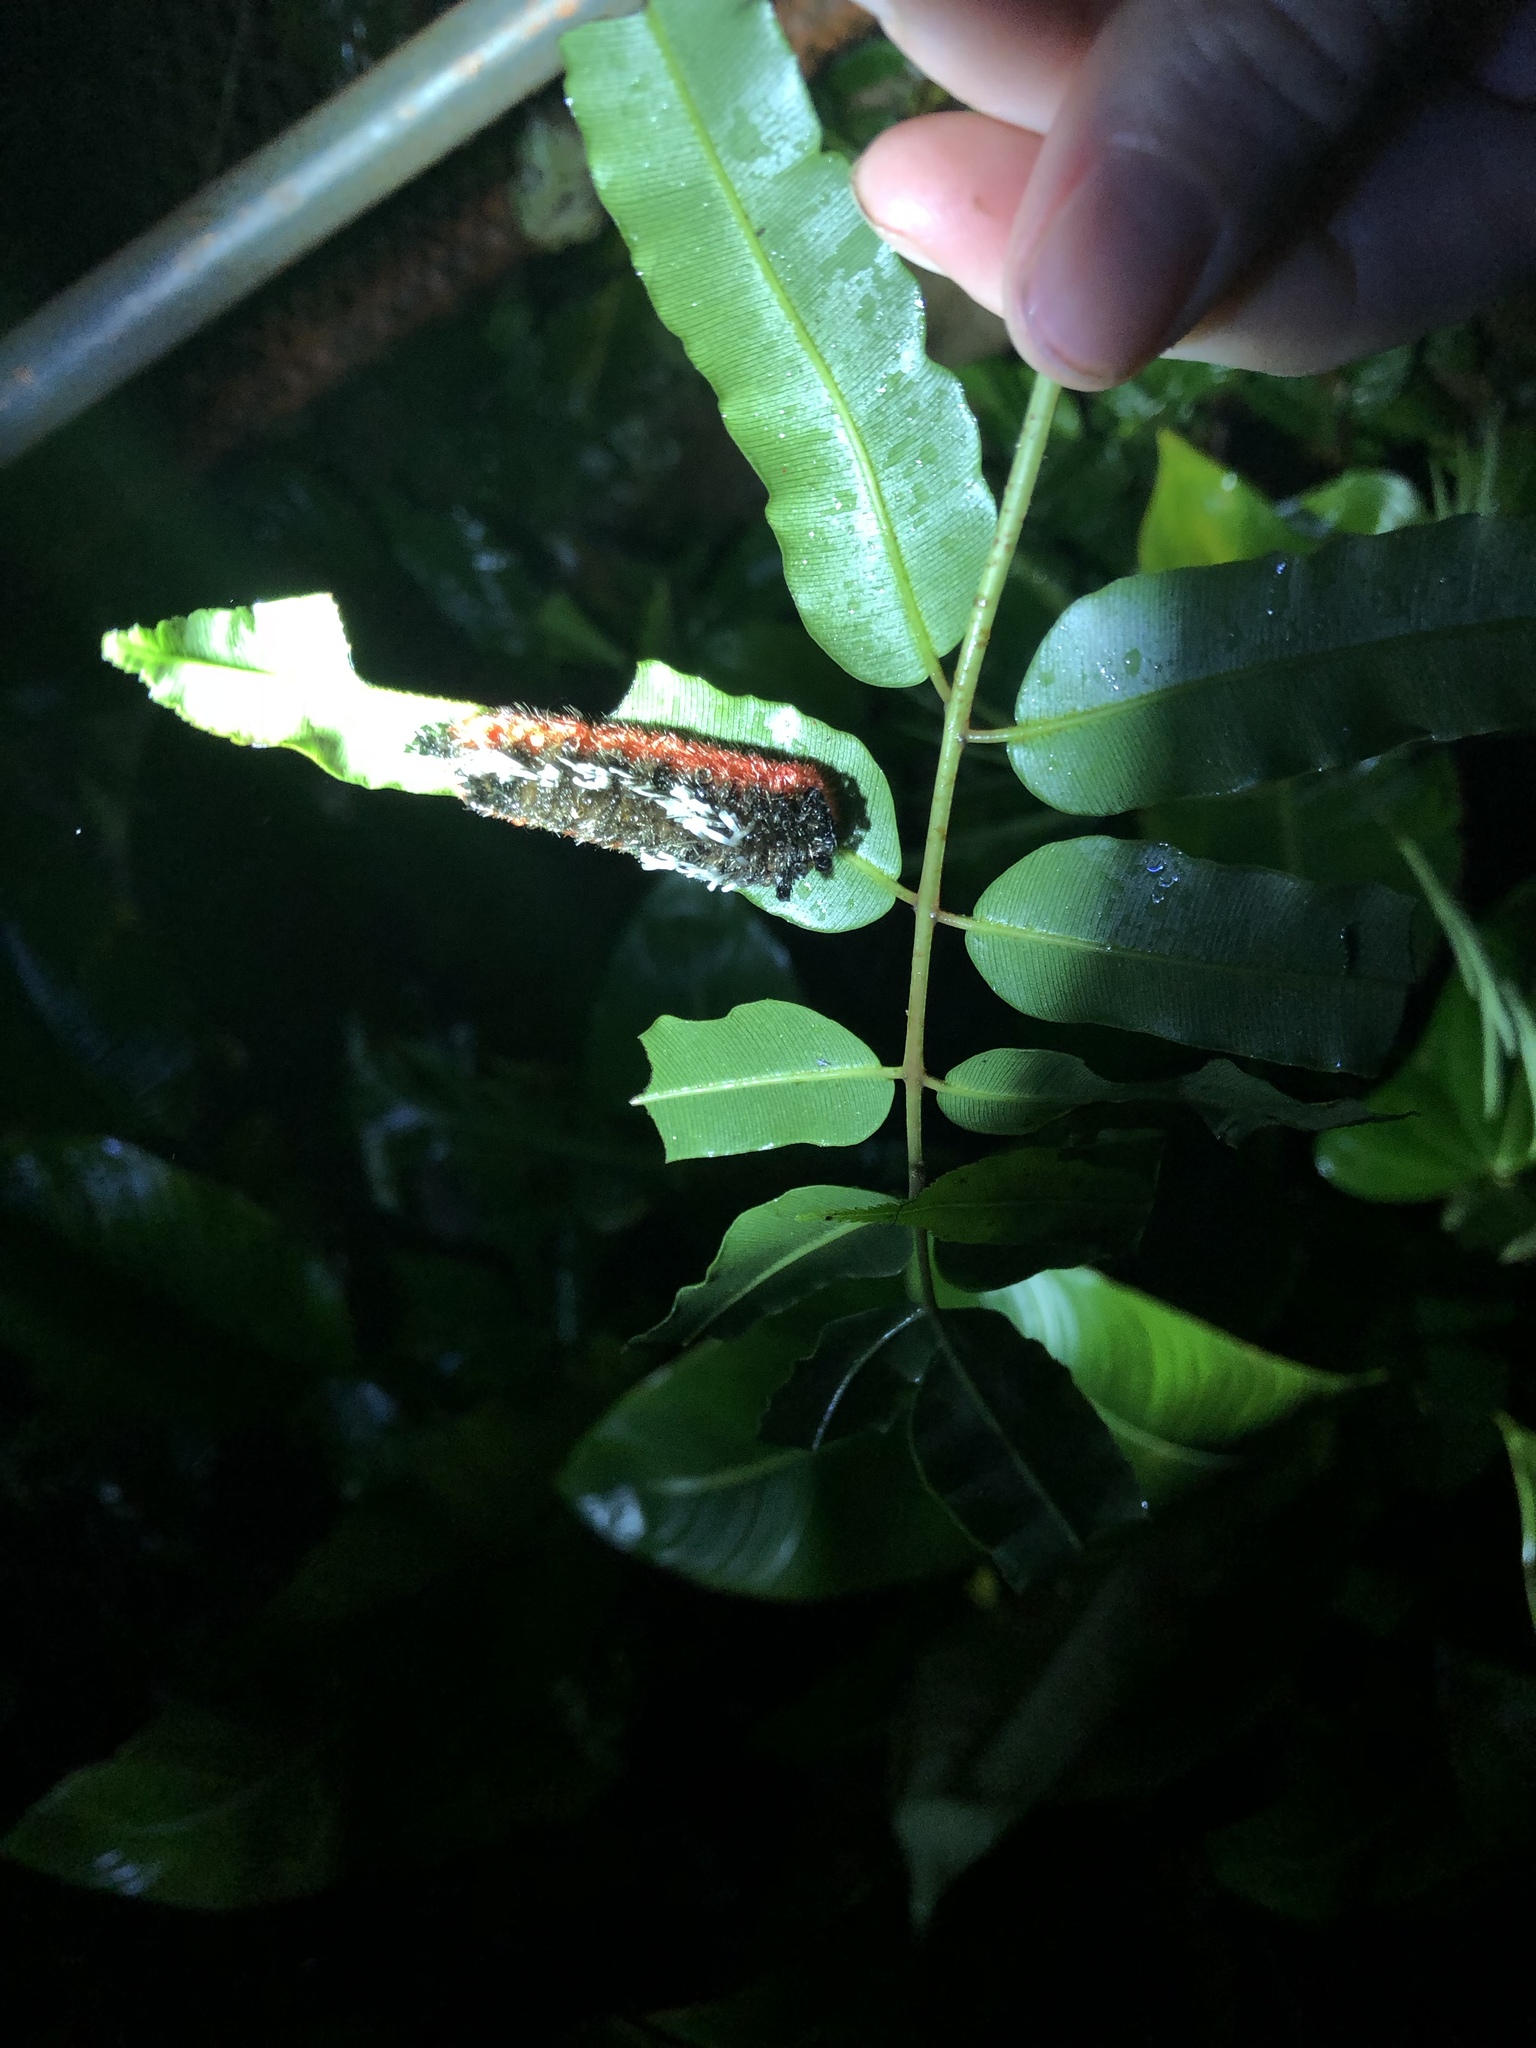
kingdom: Animalia
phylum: Arthropoda
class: Insecta
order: Lepidoptera
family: Bombycidae
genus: Prothysana
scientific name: Prothysana
